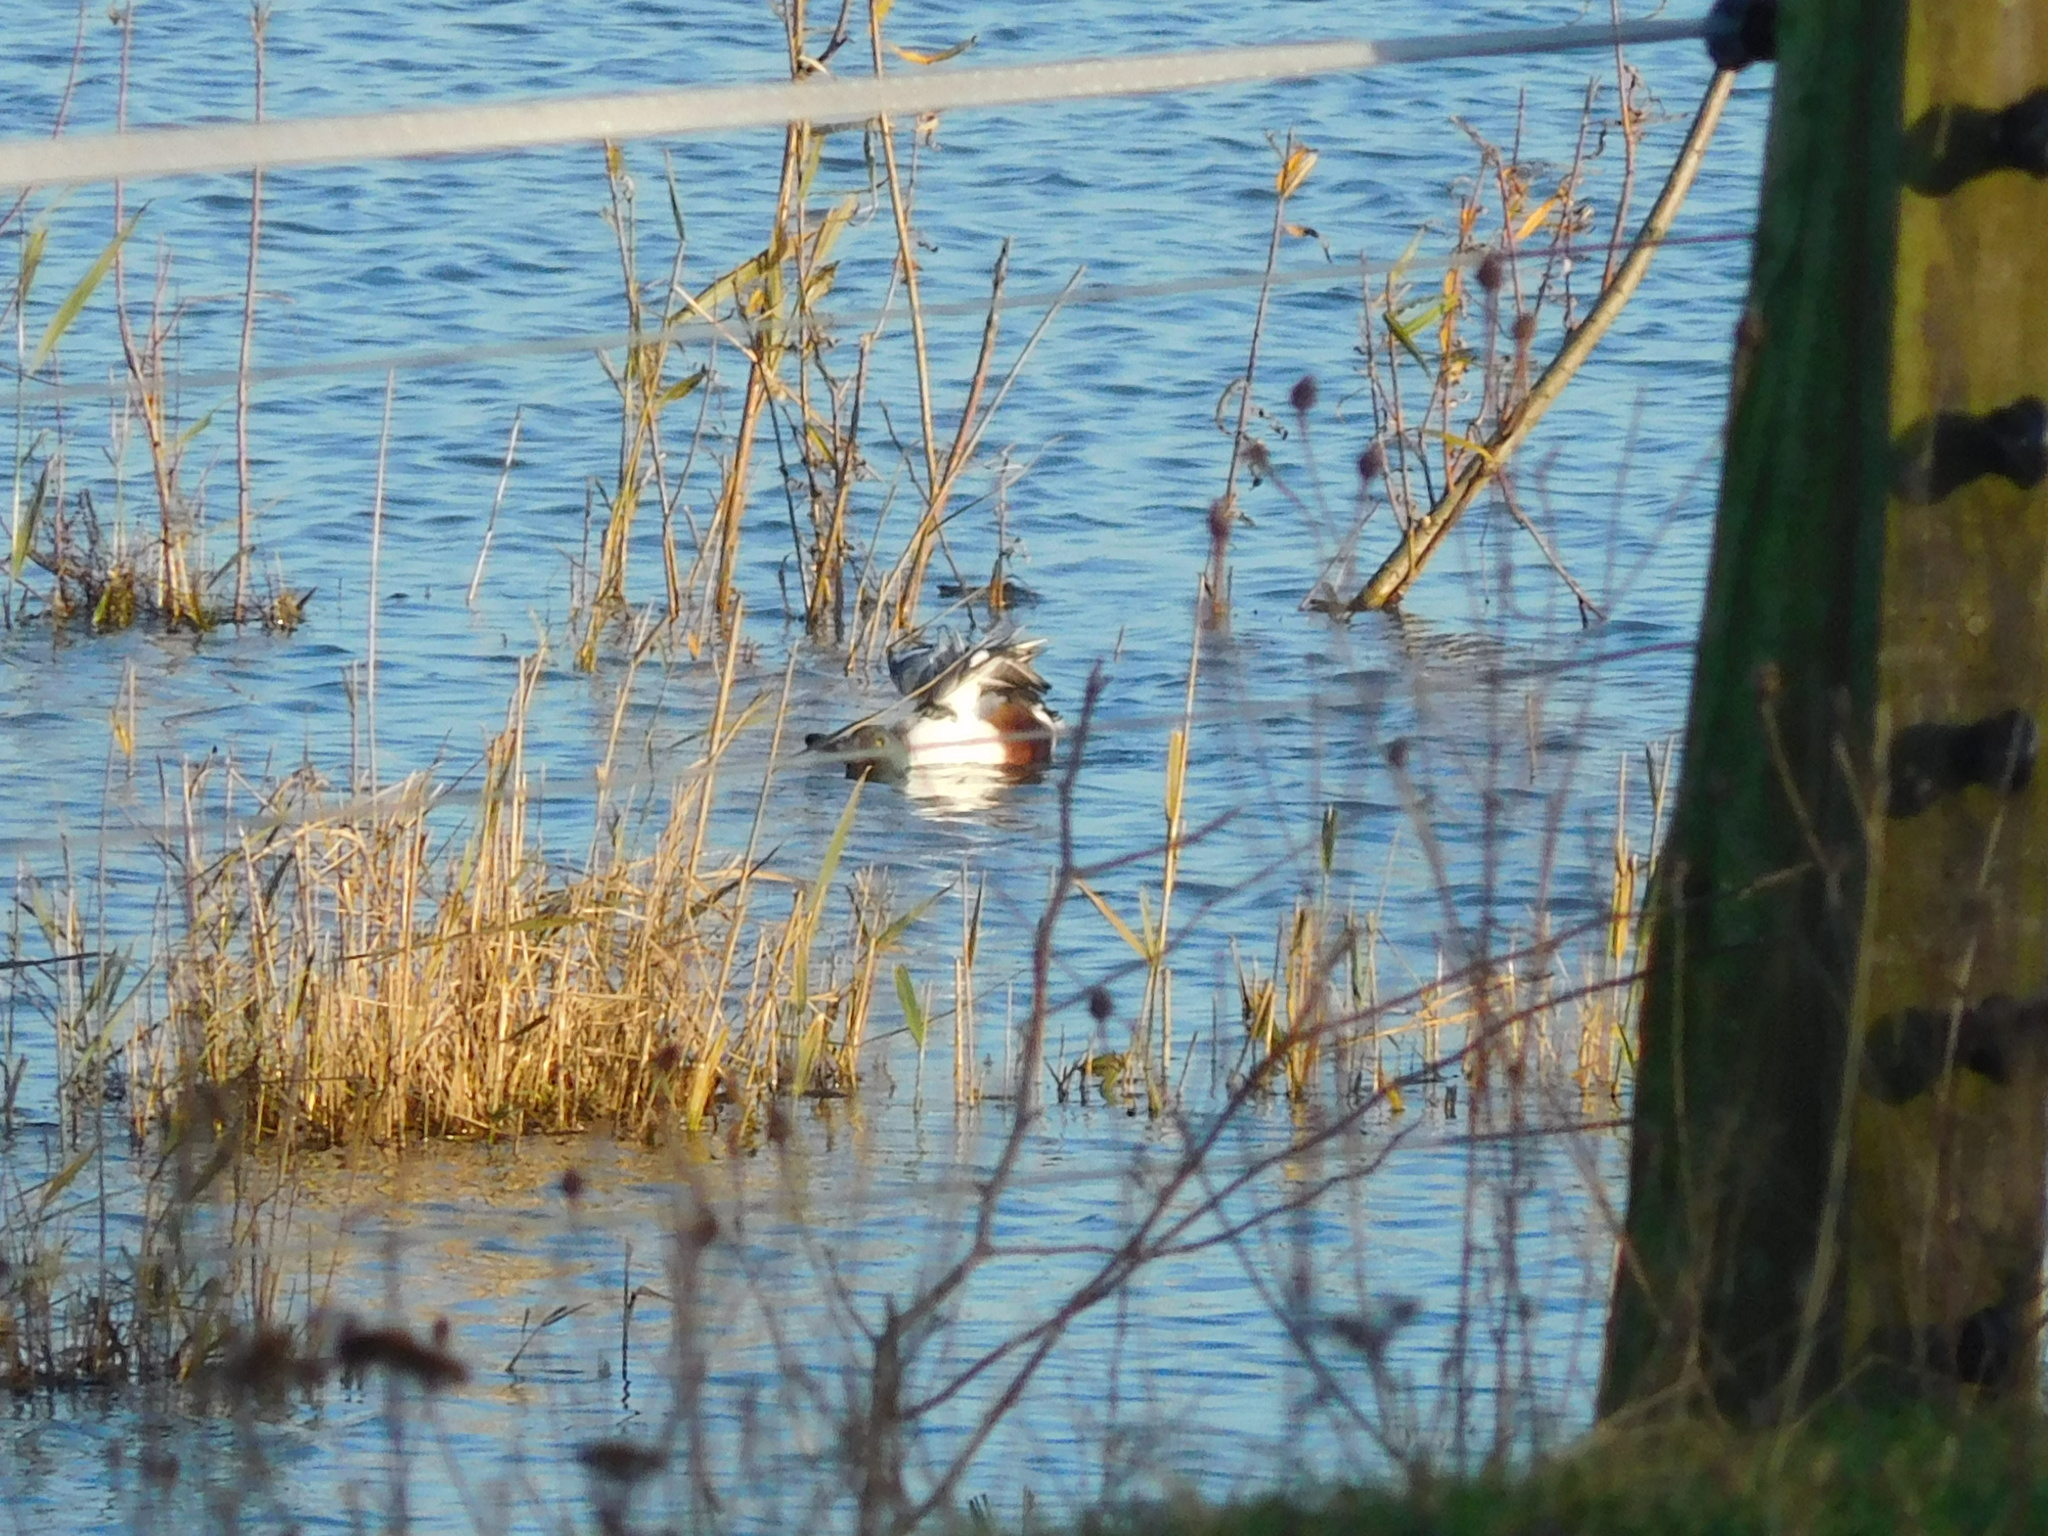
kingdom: Animalia
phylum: Chordata
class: Aves
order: Anseriformes
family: Anatidae
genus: Spatula
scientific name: Spatula clypeata
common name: Northern shoveler
